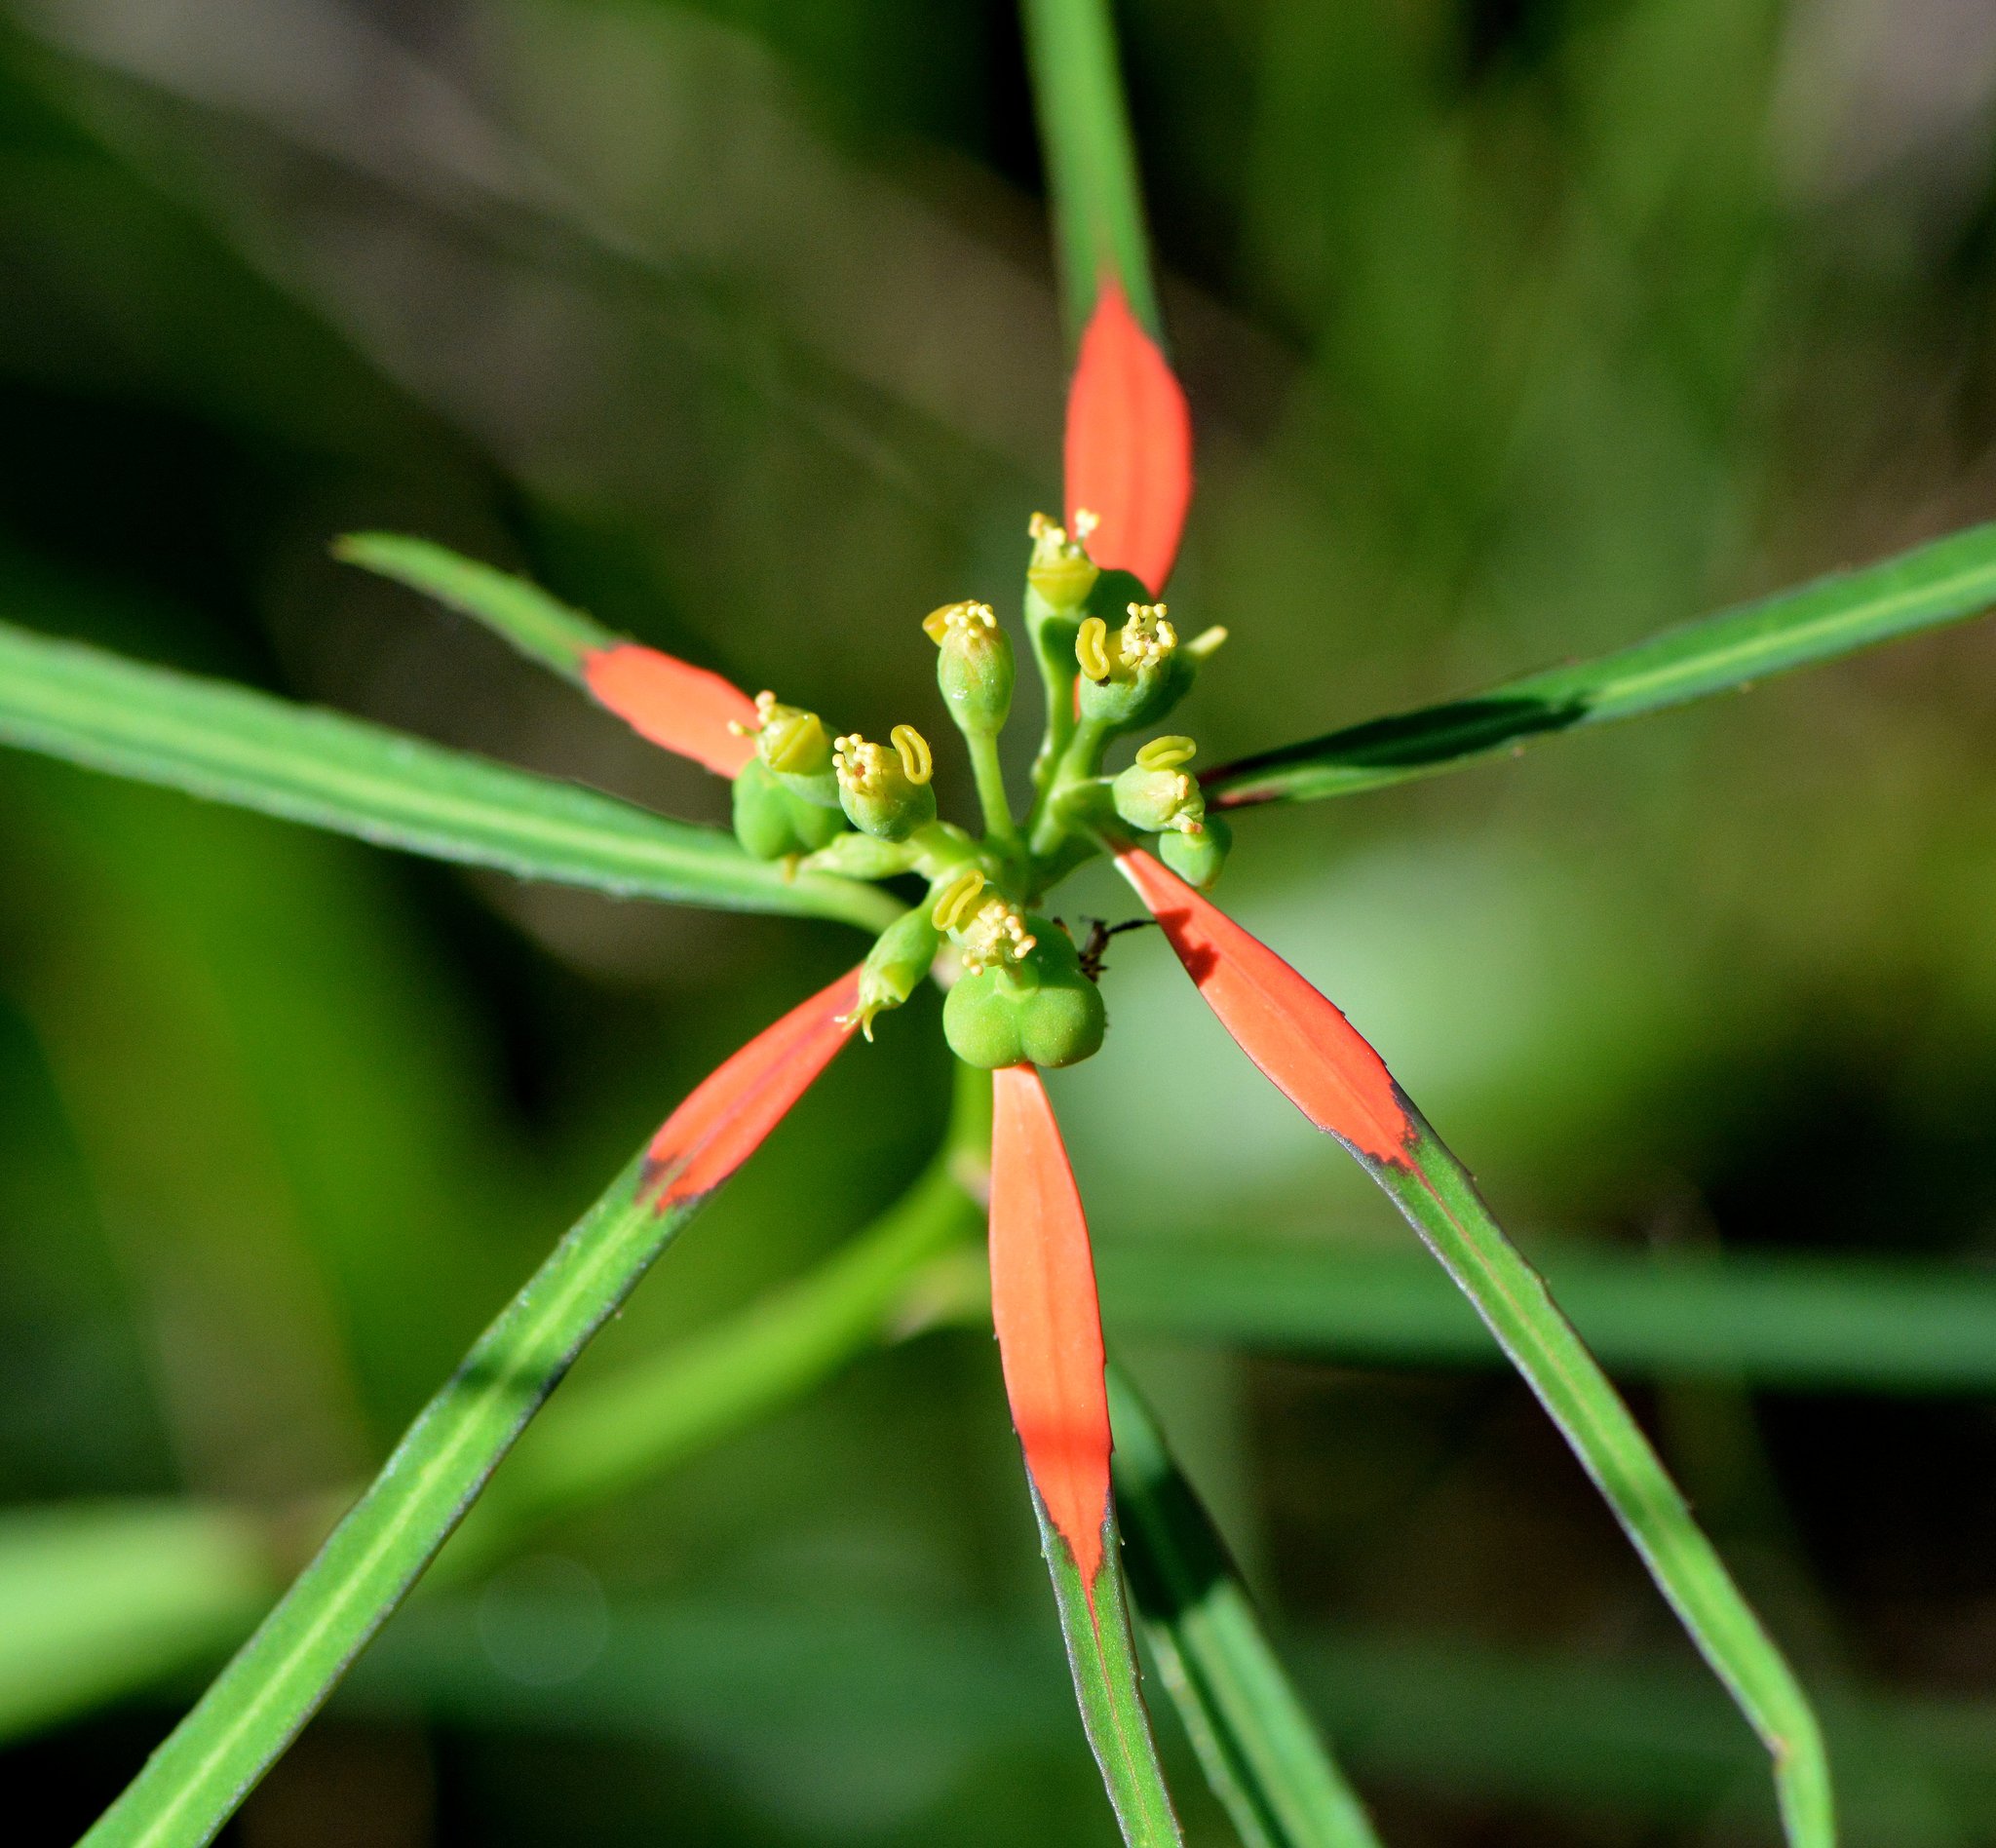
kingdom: Plantae
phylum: Tracheophyta
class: Magnoliopsida
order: Malpighiales
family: Euphorbiaceae
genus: Euphorbia
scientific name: Euphorbia heterophylla
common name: Mexican fireplant
